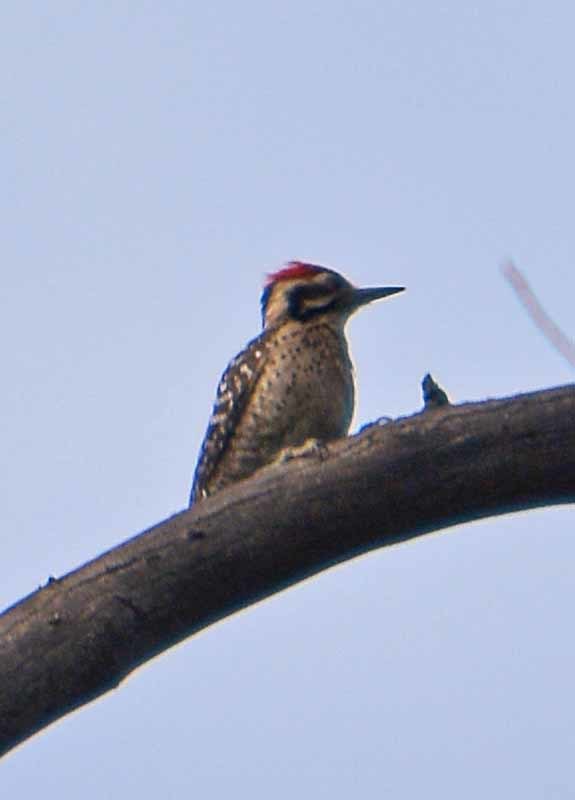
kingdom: Animalia
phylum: Chordata
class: Aves
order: Piciformes
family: Picidae
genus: Dryobates
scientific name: Dryobates scalaris
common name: Ladder-backed woodpecker
